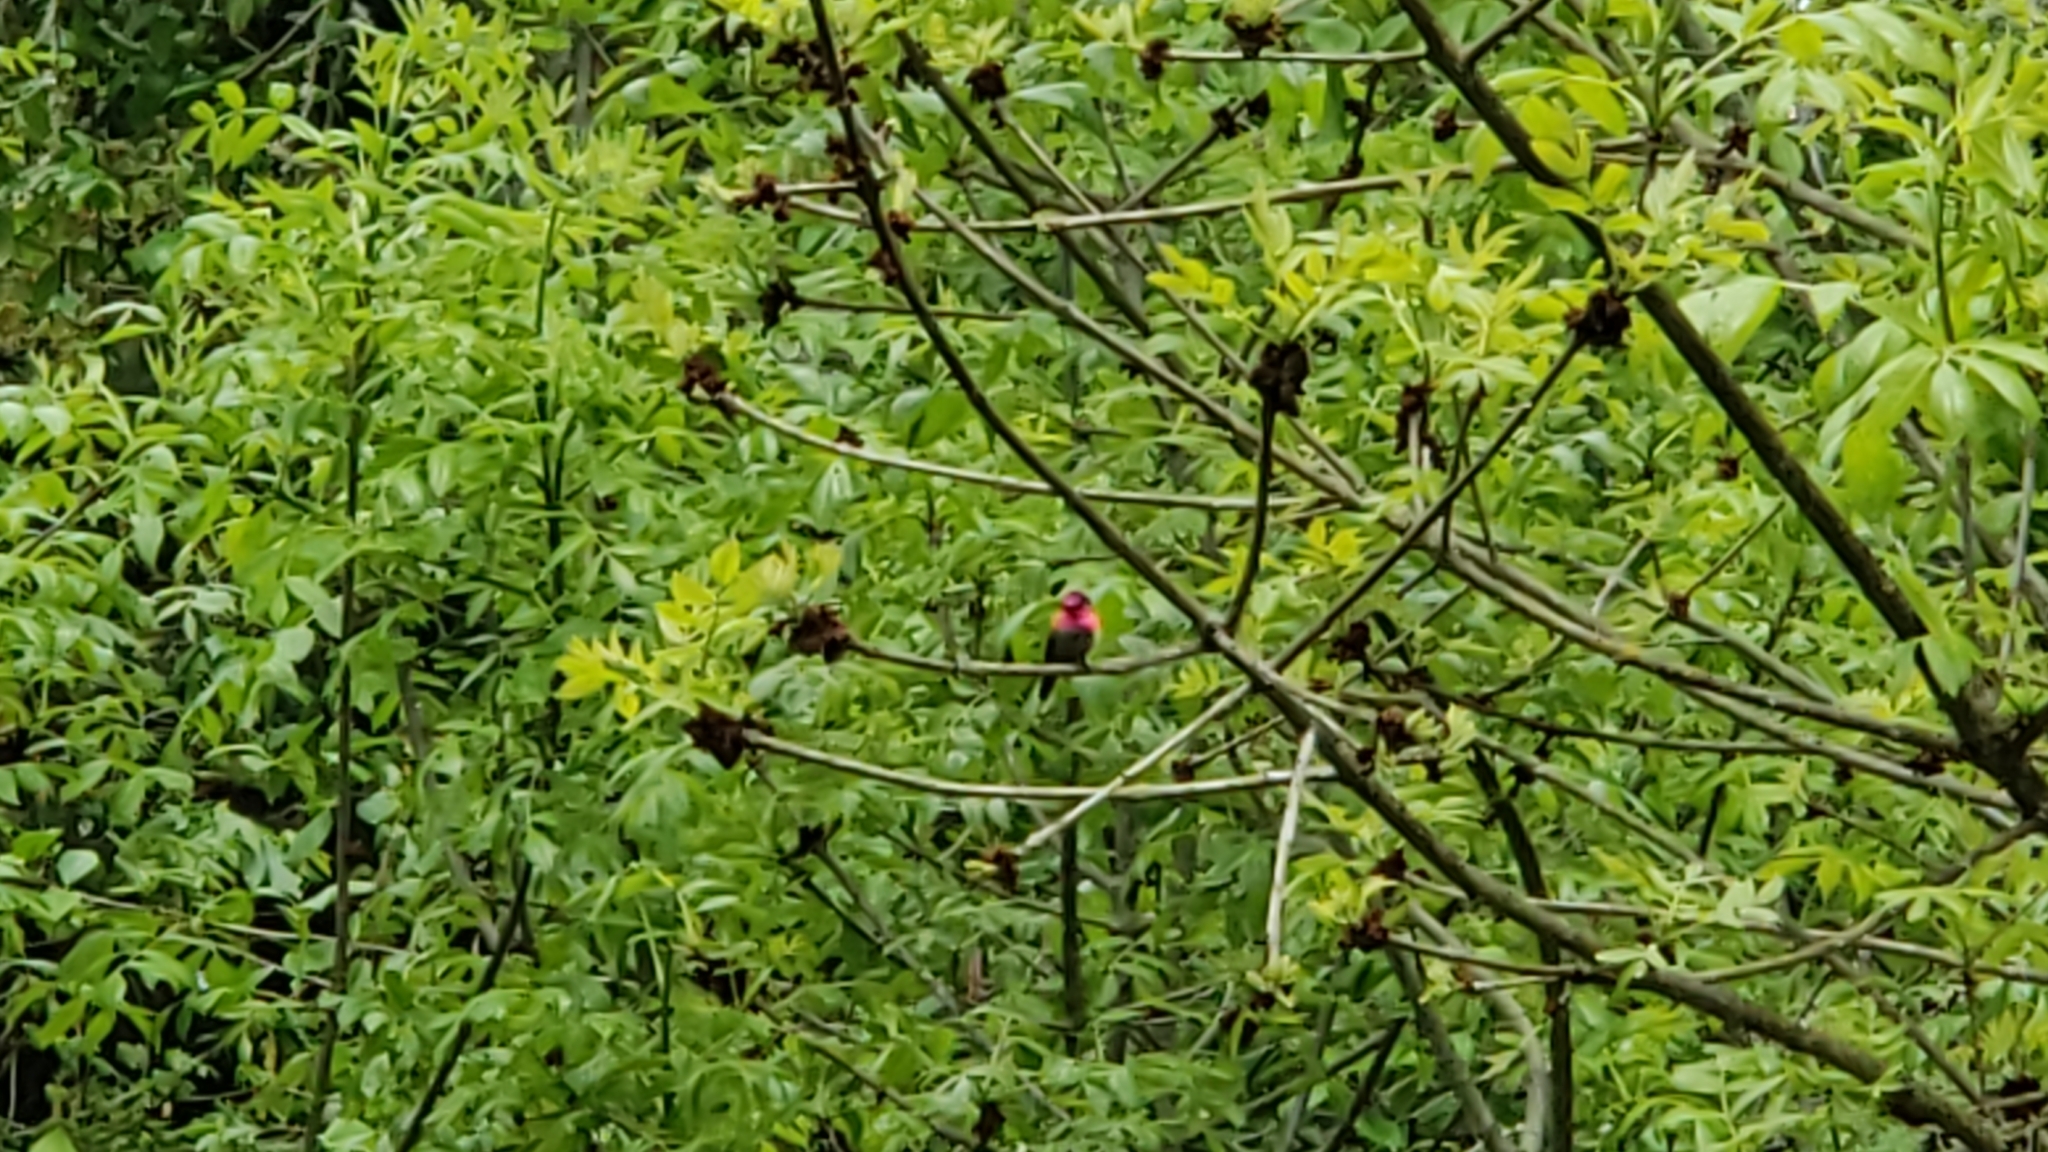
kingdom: Animalia
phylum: Chordata
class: Aves
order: Apodiformes
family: Trochilidae
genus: Calypte
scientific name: Calypte anna
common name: Anna's hummingbird
